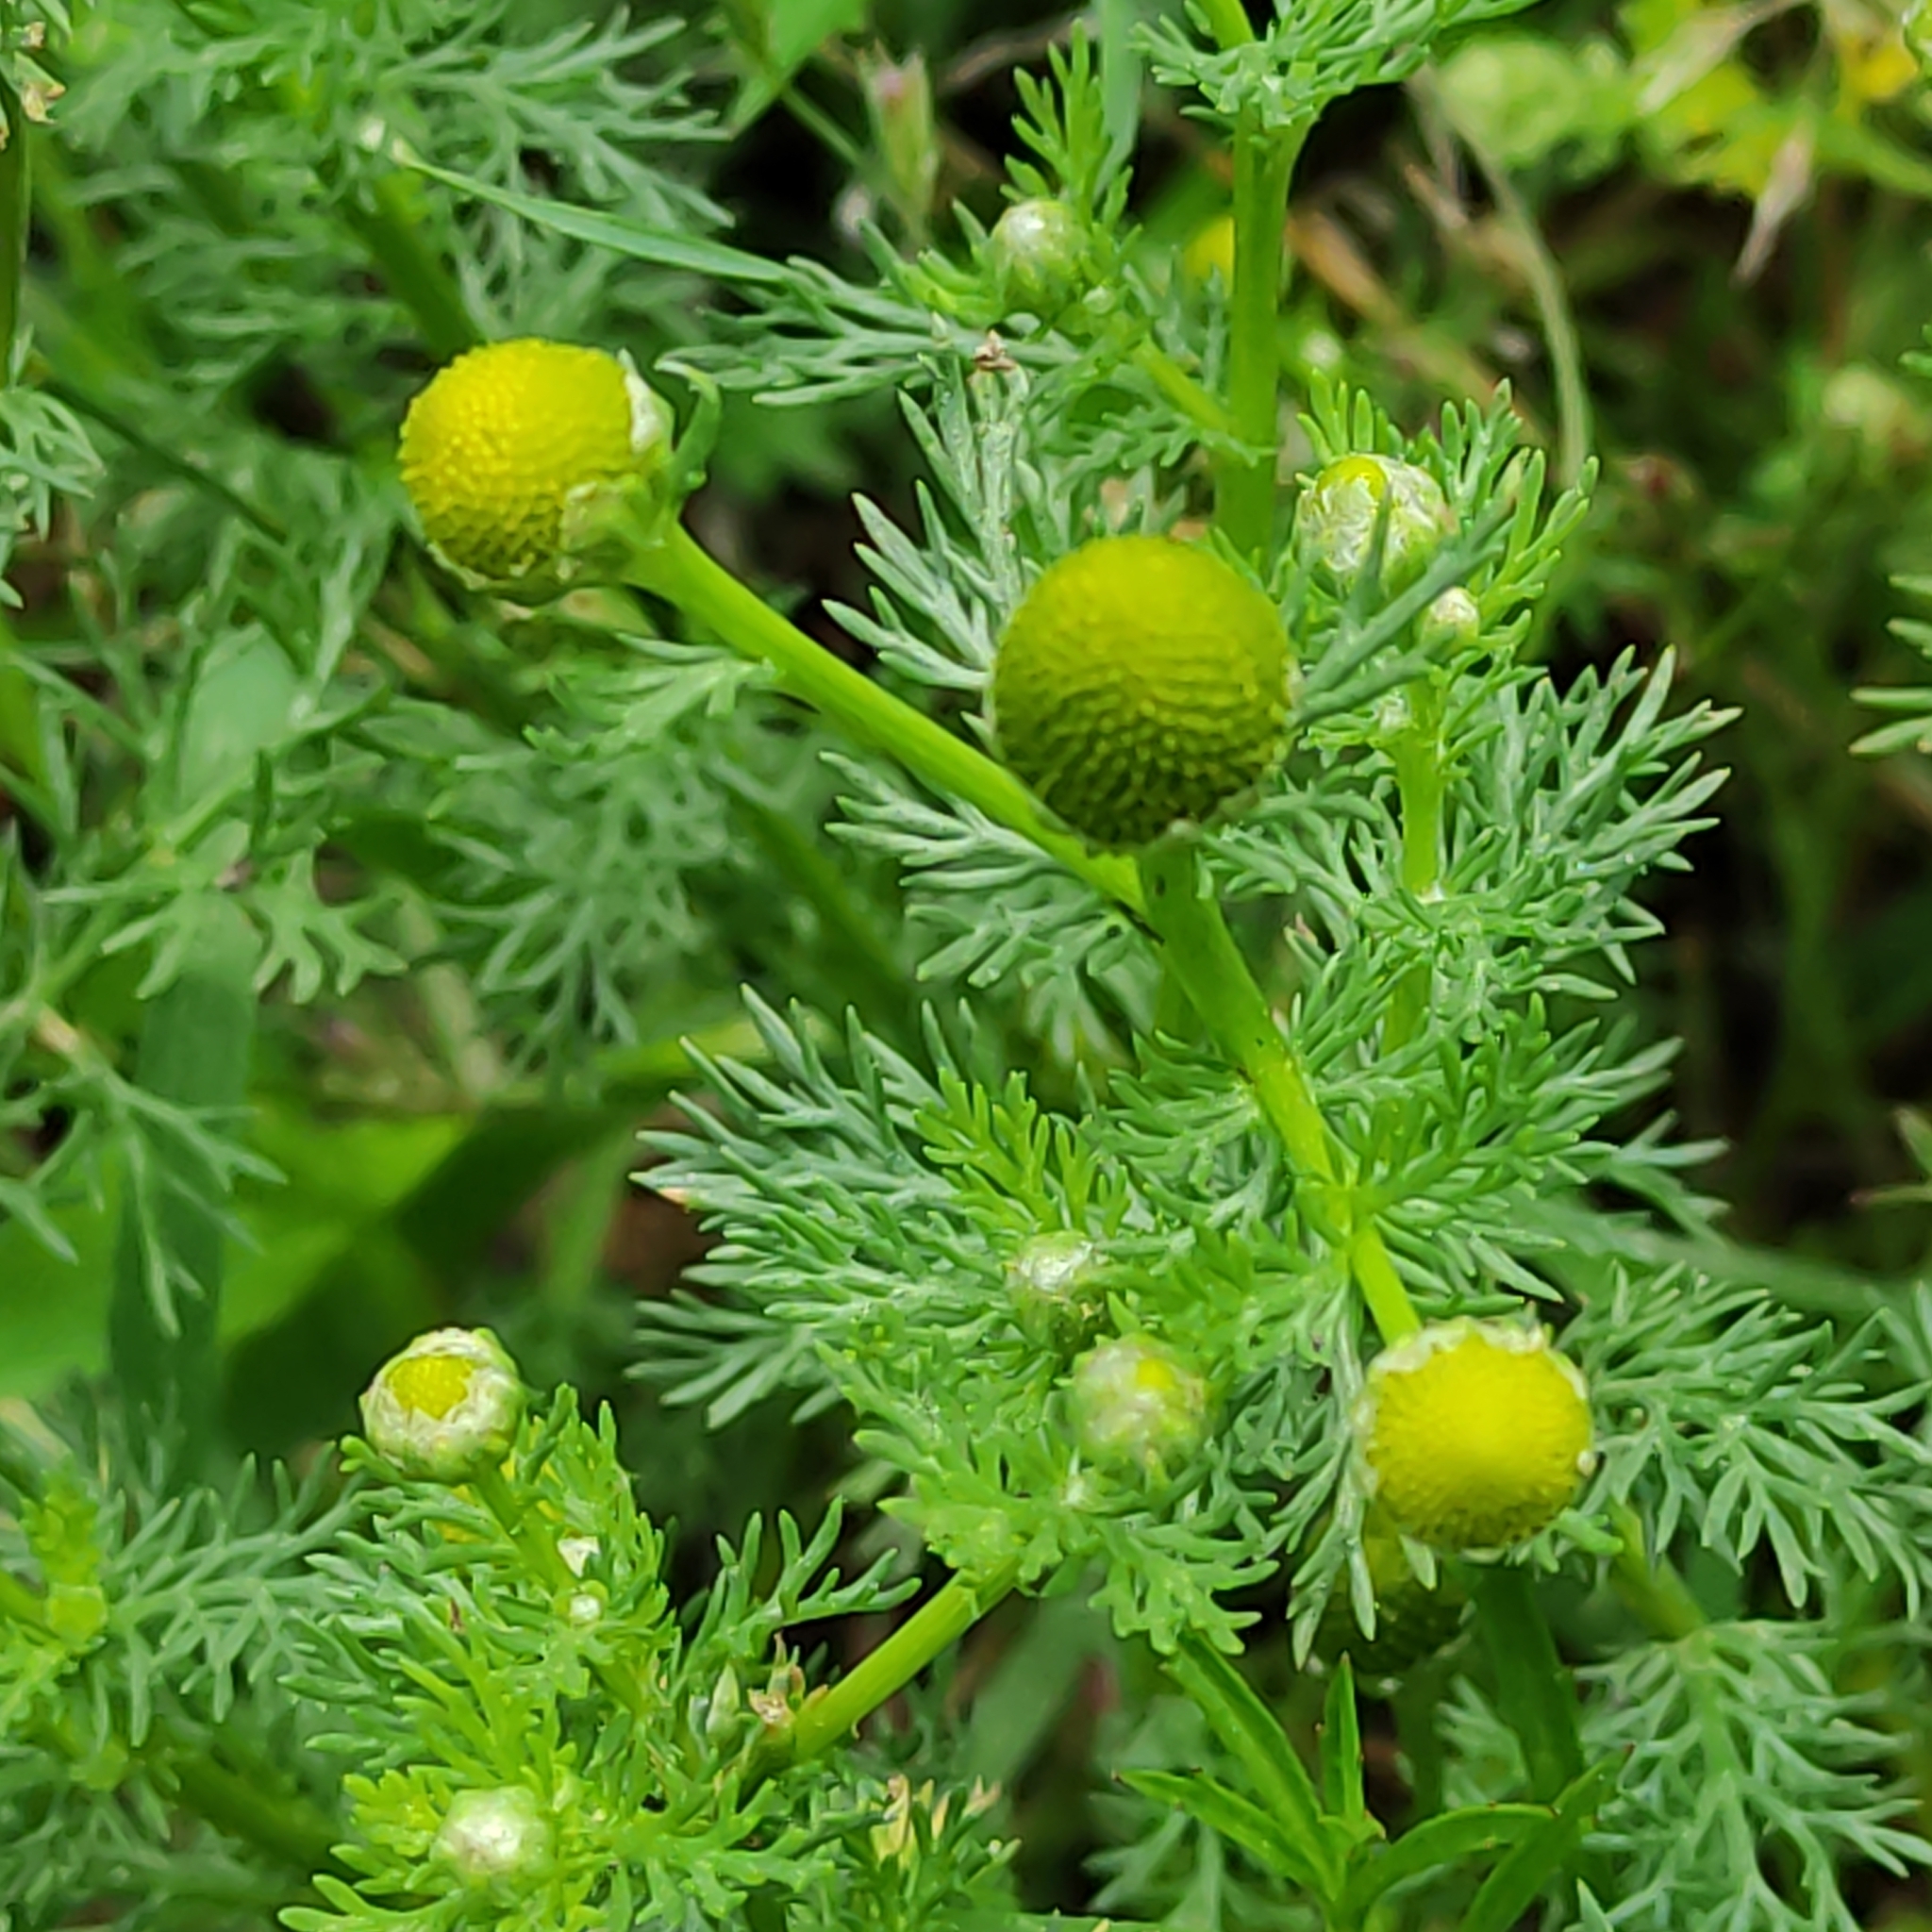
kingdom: Plantae
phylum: Tracheophyta
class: Magnoliopsida
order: Asterales
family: Asteraceae
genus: Matricaria
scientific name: Matricaria discoidea
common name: Disc mayweed
